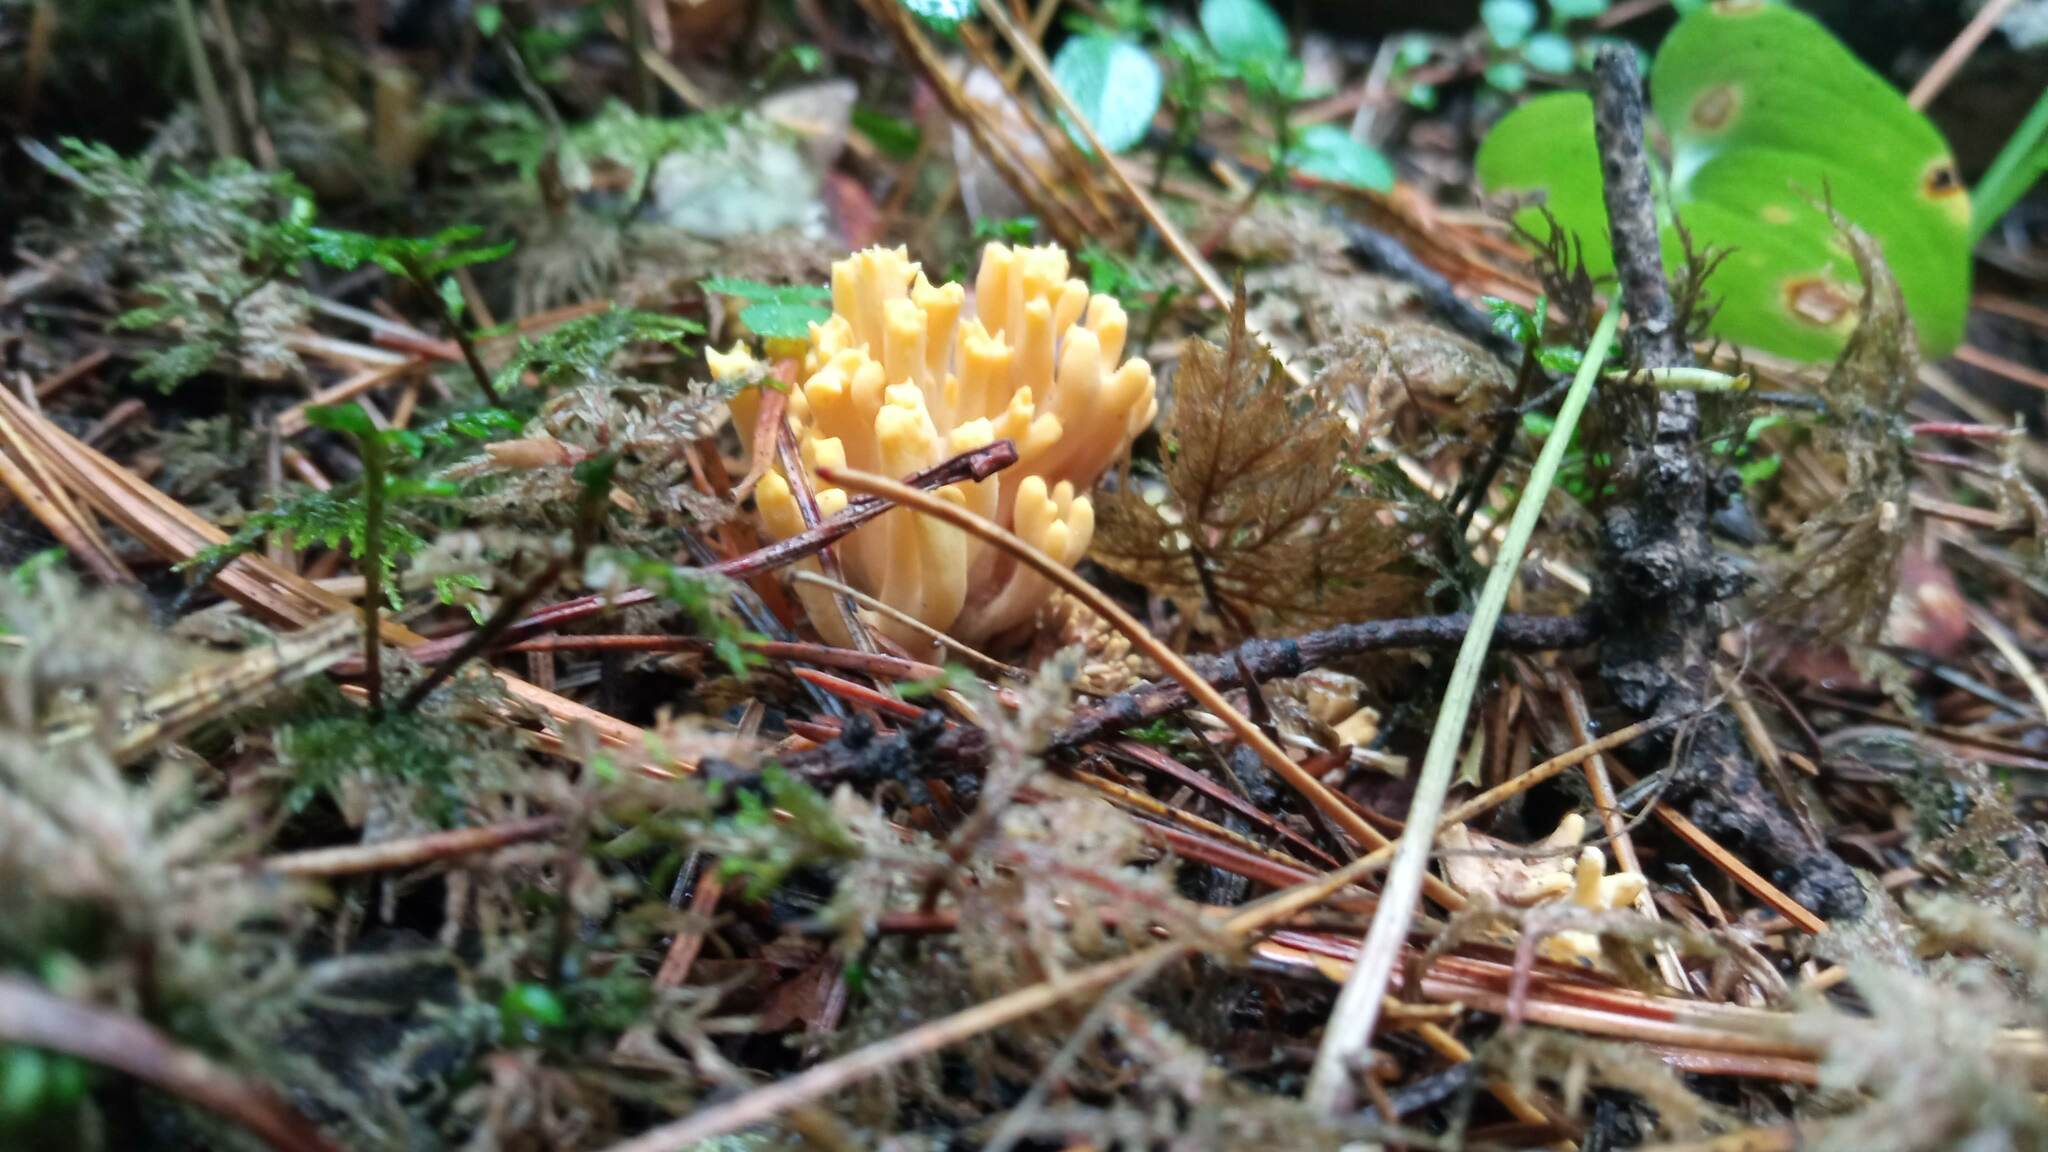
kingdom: Fungi
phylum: Basidiomycota
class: Agaricomycetes
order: Gomphales
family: Gomphaceae
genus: Ramaria
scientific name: Ramaria testaceoflava
